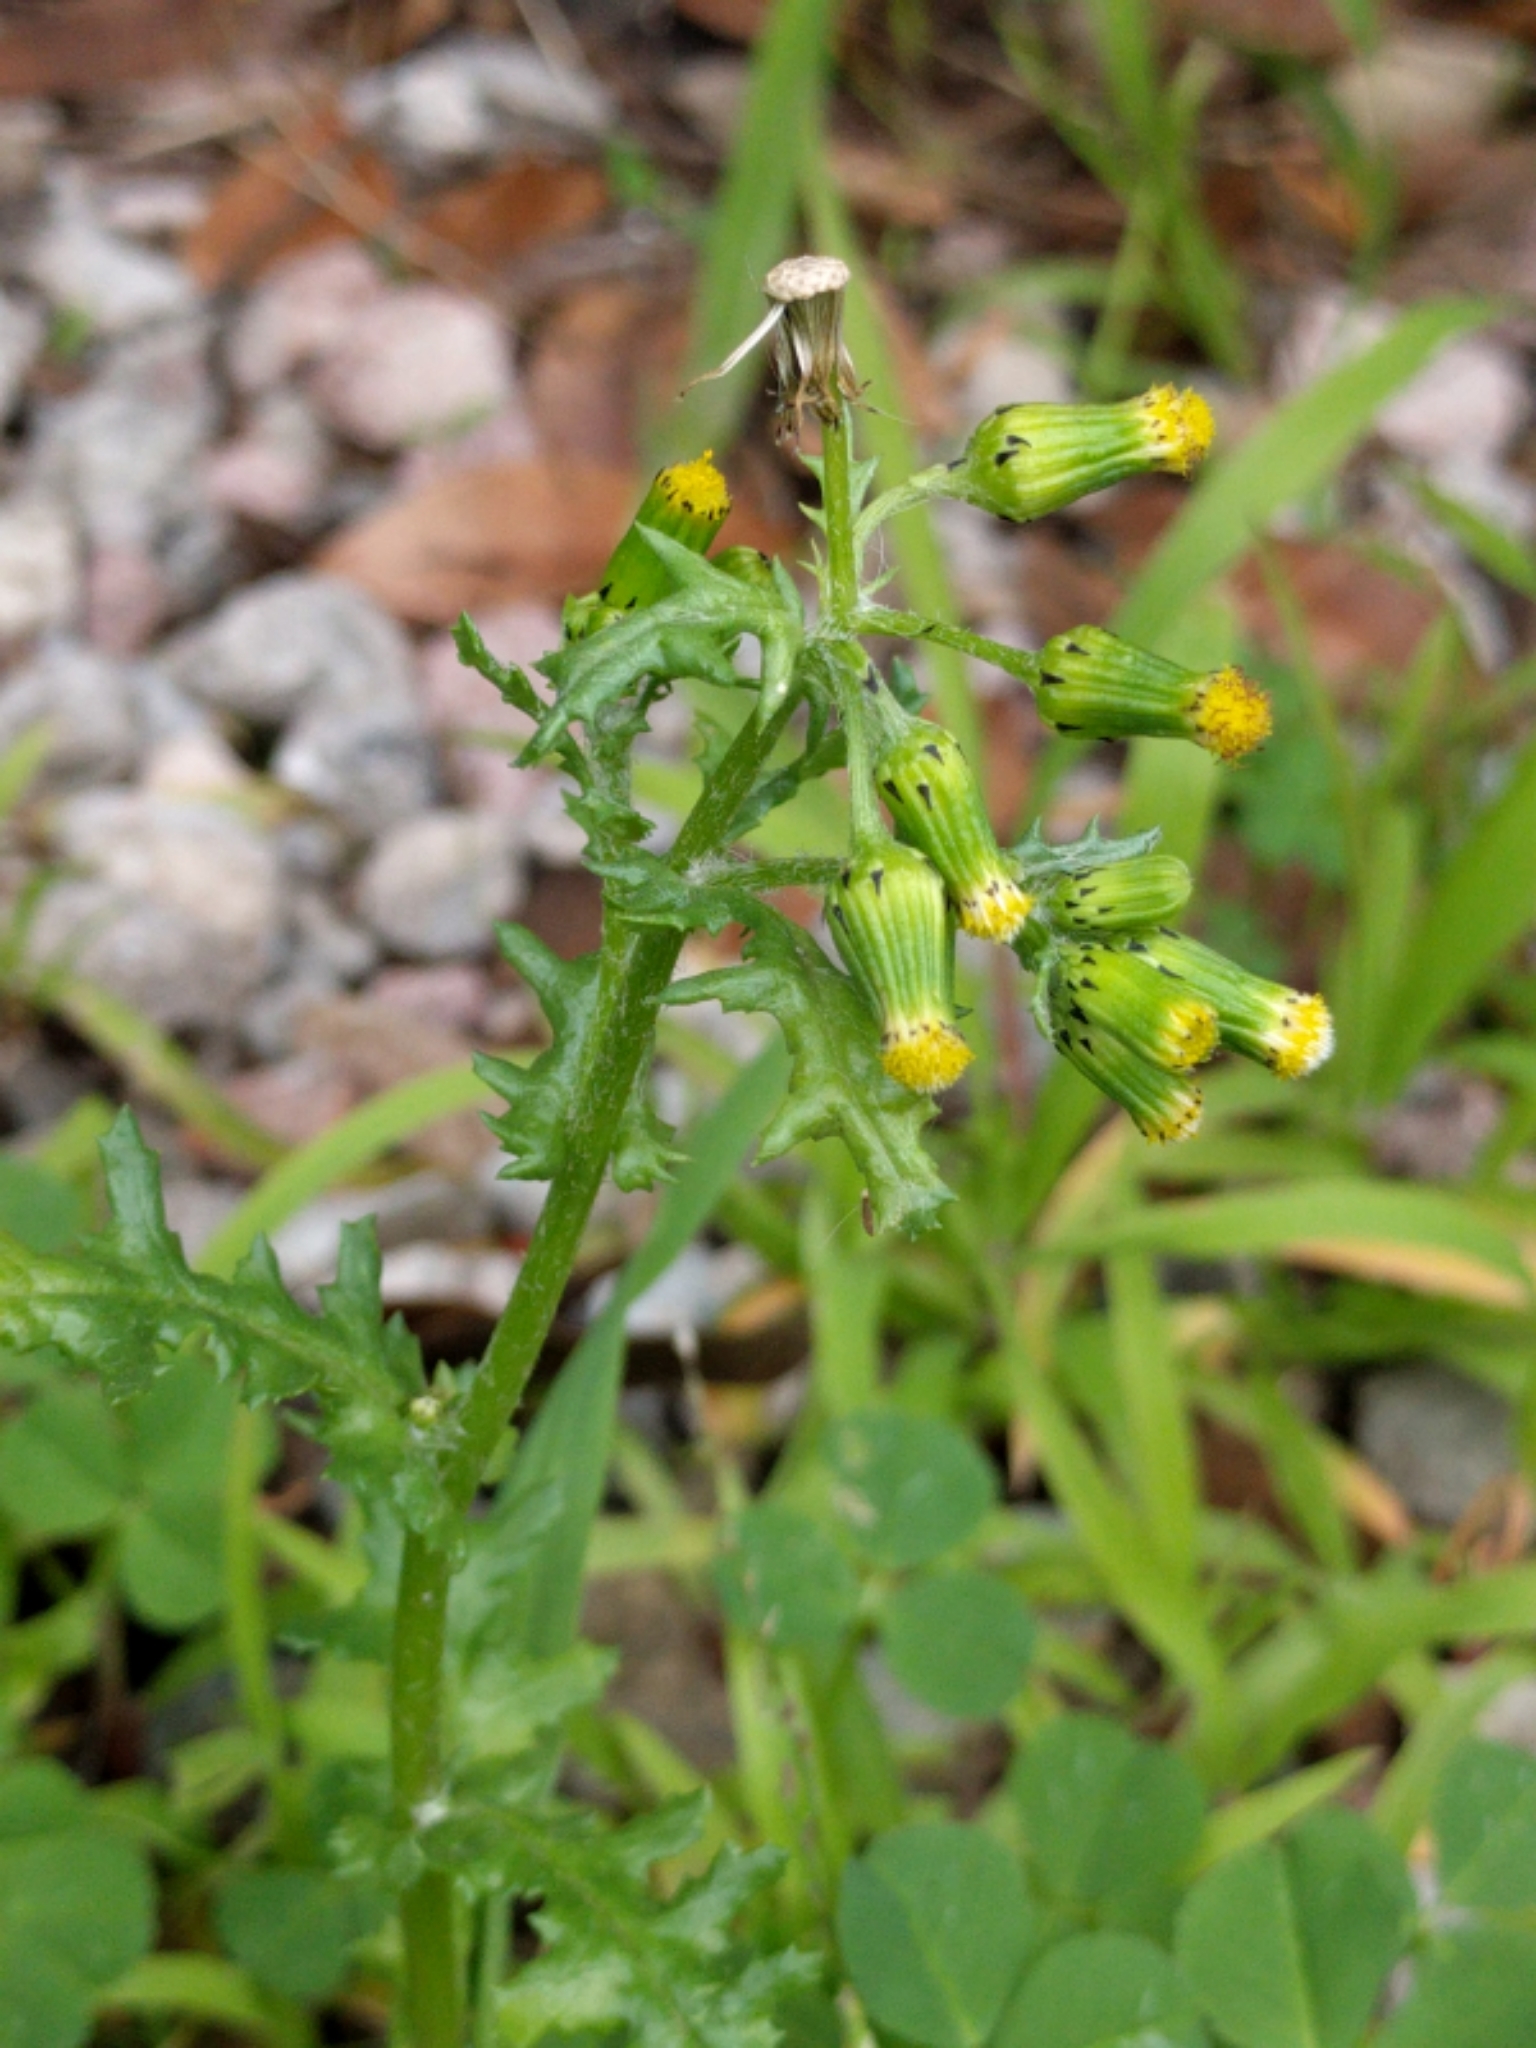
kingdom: Plantae
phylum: Tracheophyta
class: Magnoliopsida
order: Asterales
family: Asteraceae
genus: Senecio
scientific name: Senecio vulgaris
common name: Old-man-in-the-spring
